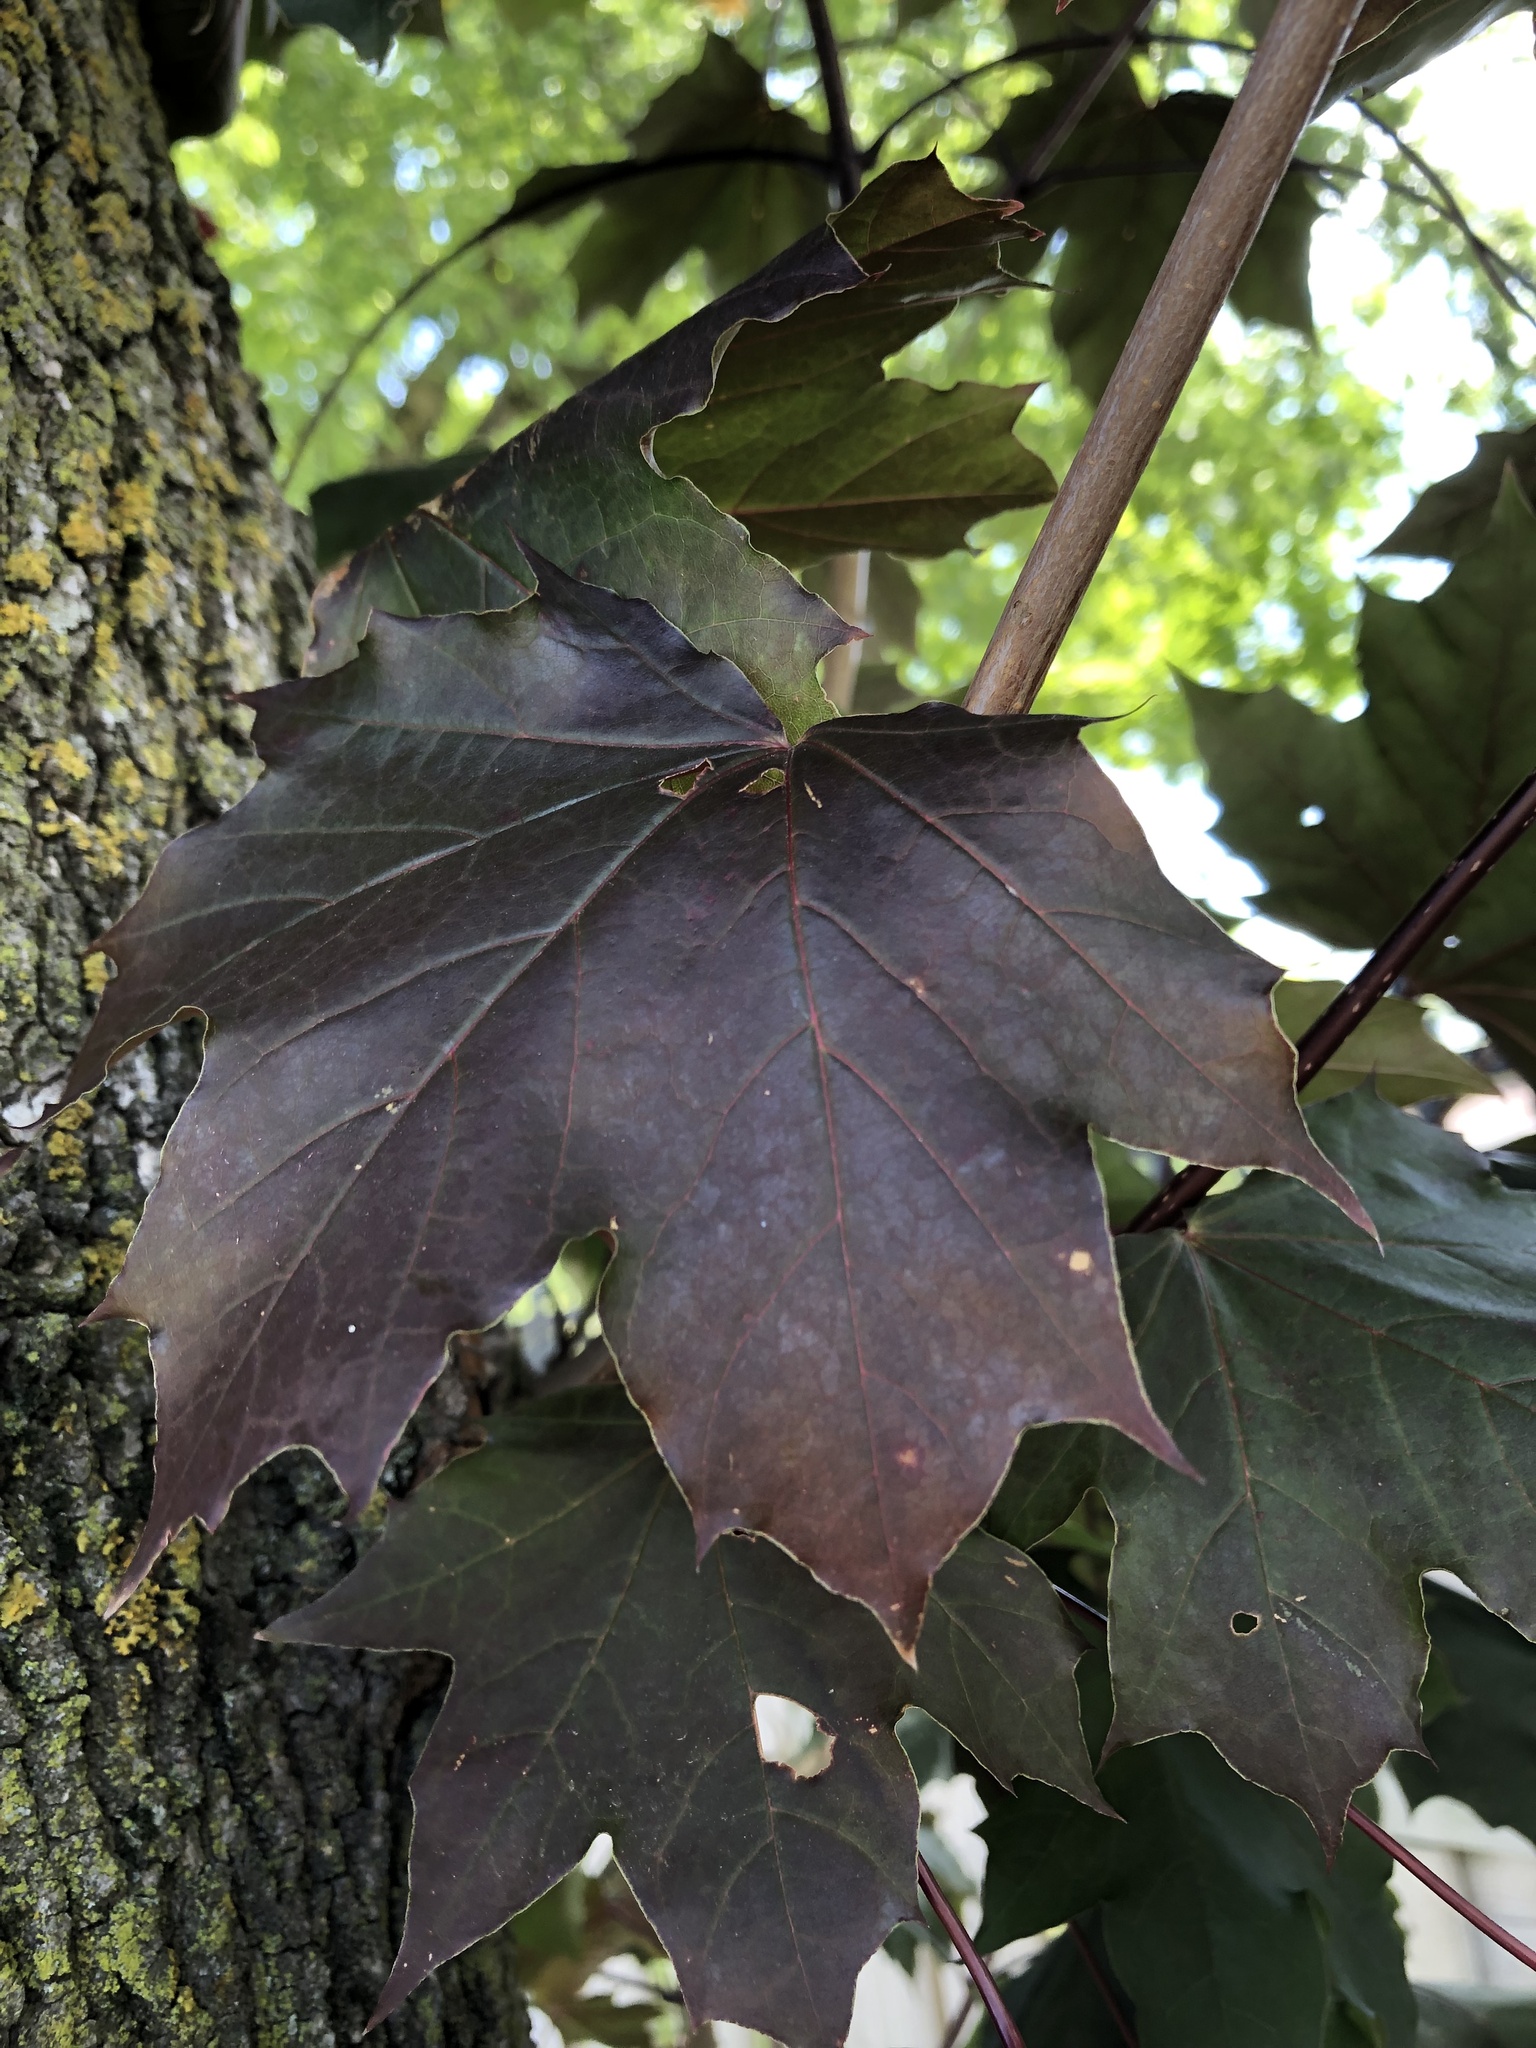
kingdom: Plantae
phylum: Tracheophyta
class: Magnoliopsida
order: Sapindales
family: Sapindaceae
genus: Acer
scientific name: Acer platanoides
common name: Norway maple
